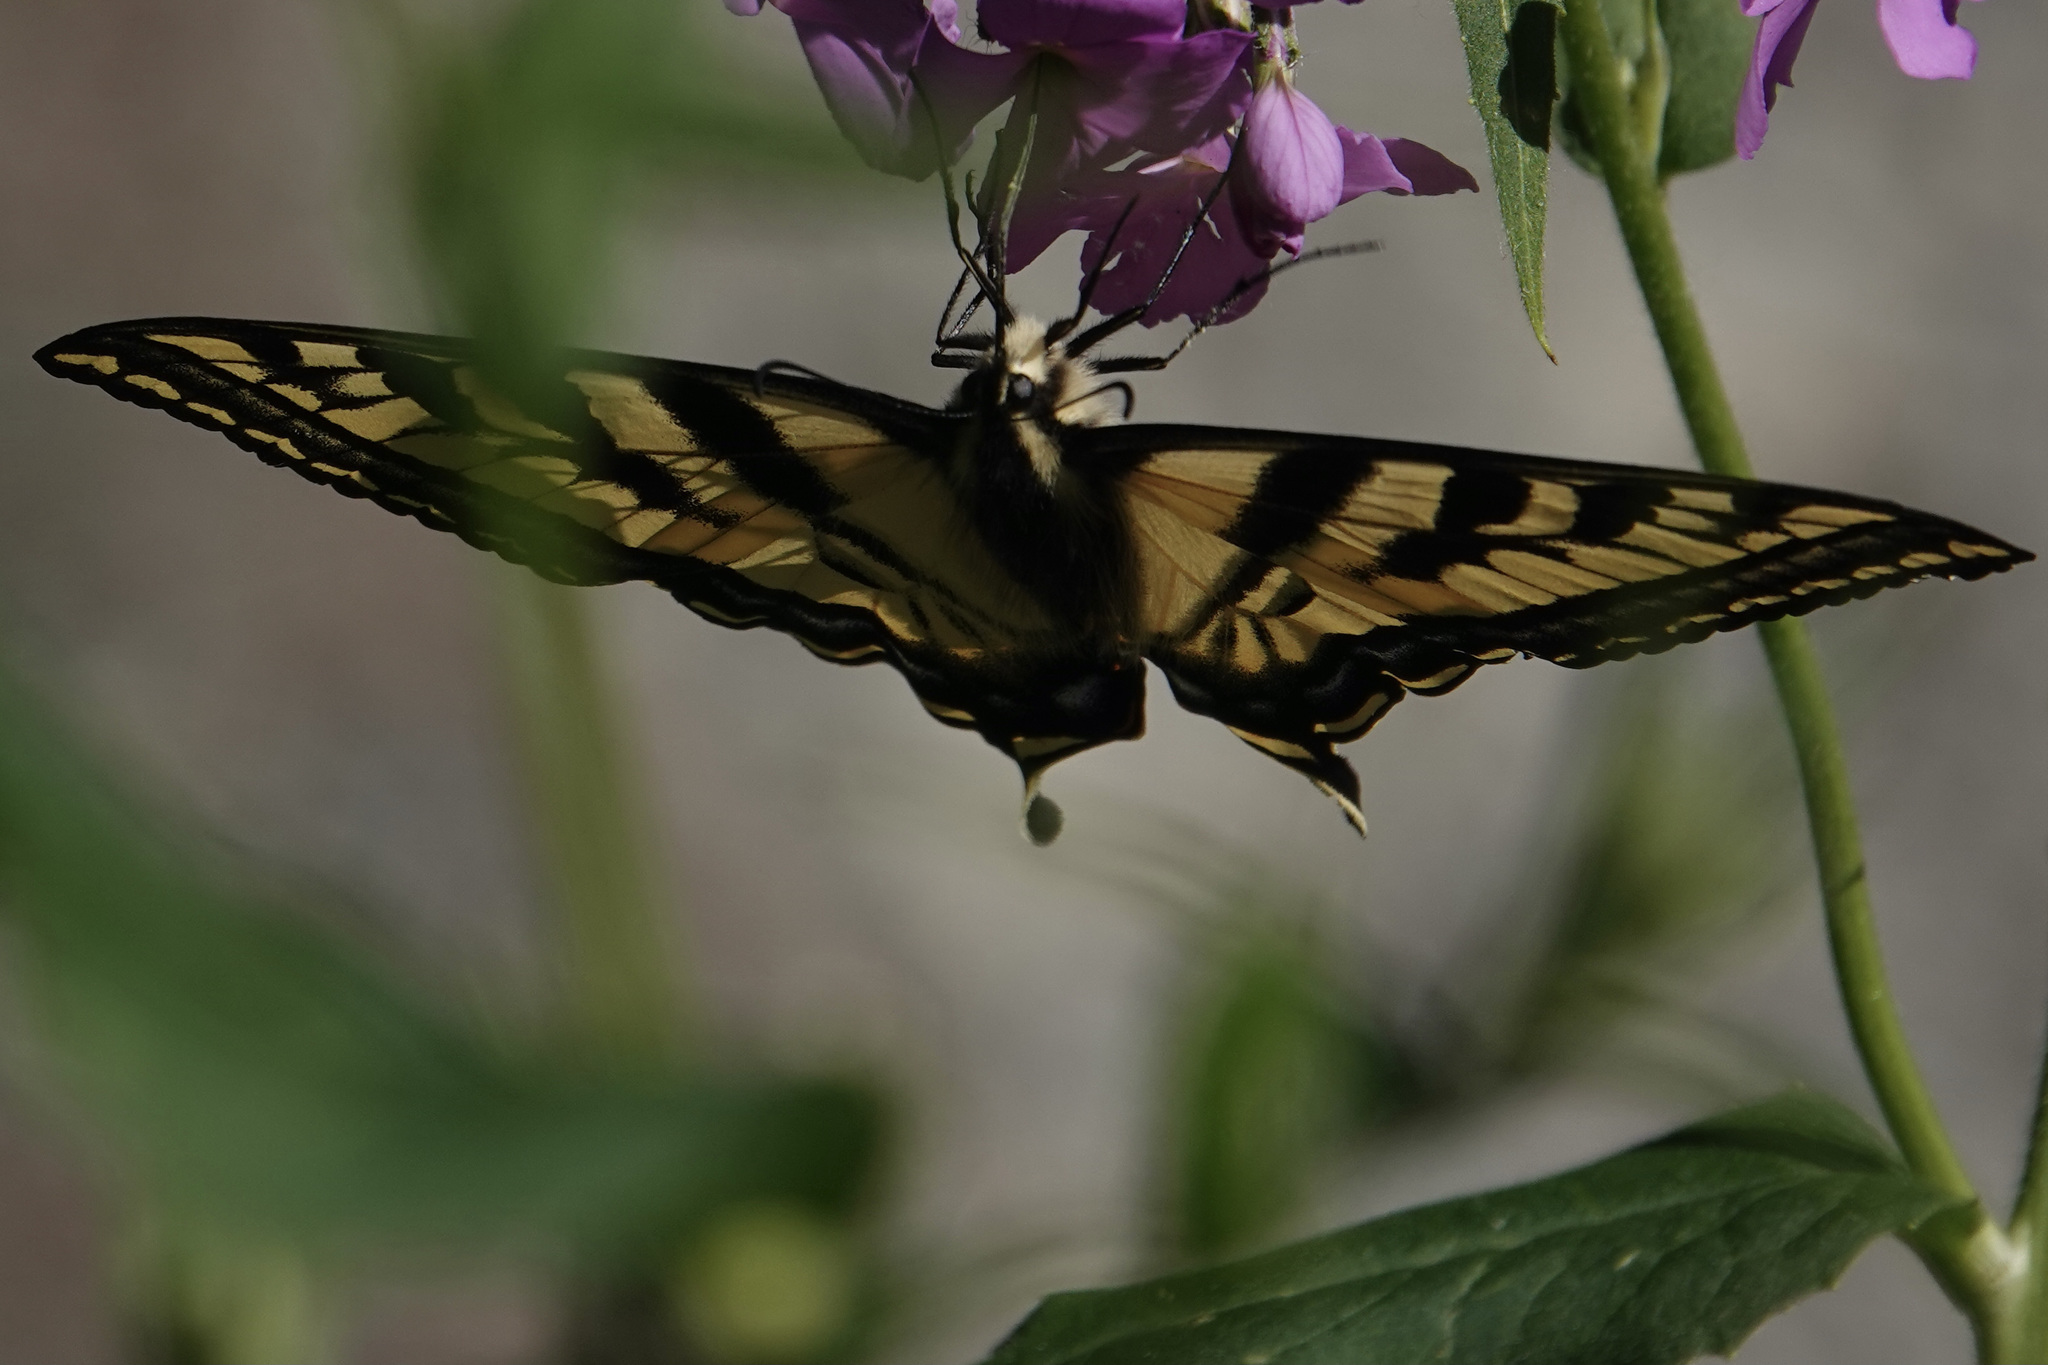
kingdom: Animalia
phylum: Arthropoda
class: Insecta
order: Lepidoptera
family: Papilionidae
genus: Papilio
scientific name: Papilio rutulus
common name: Western tiger swallowtail
